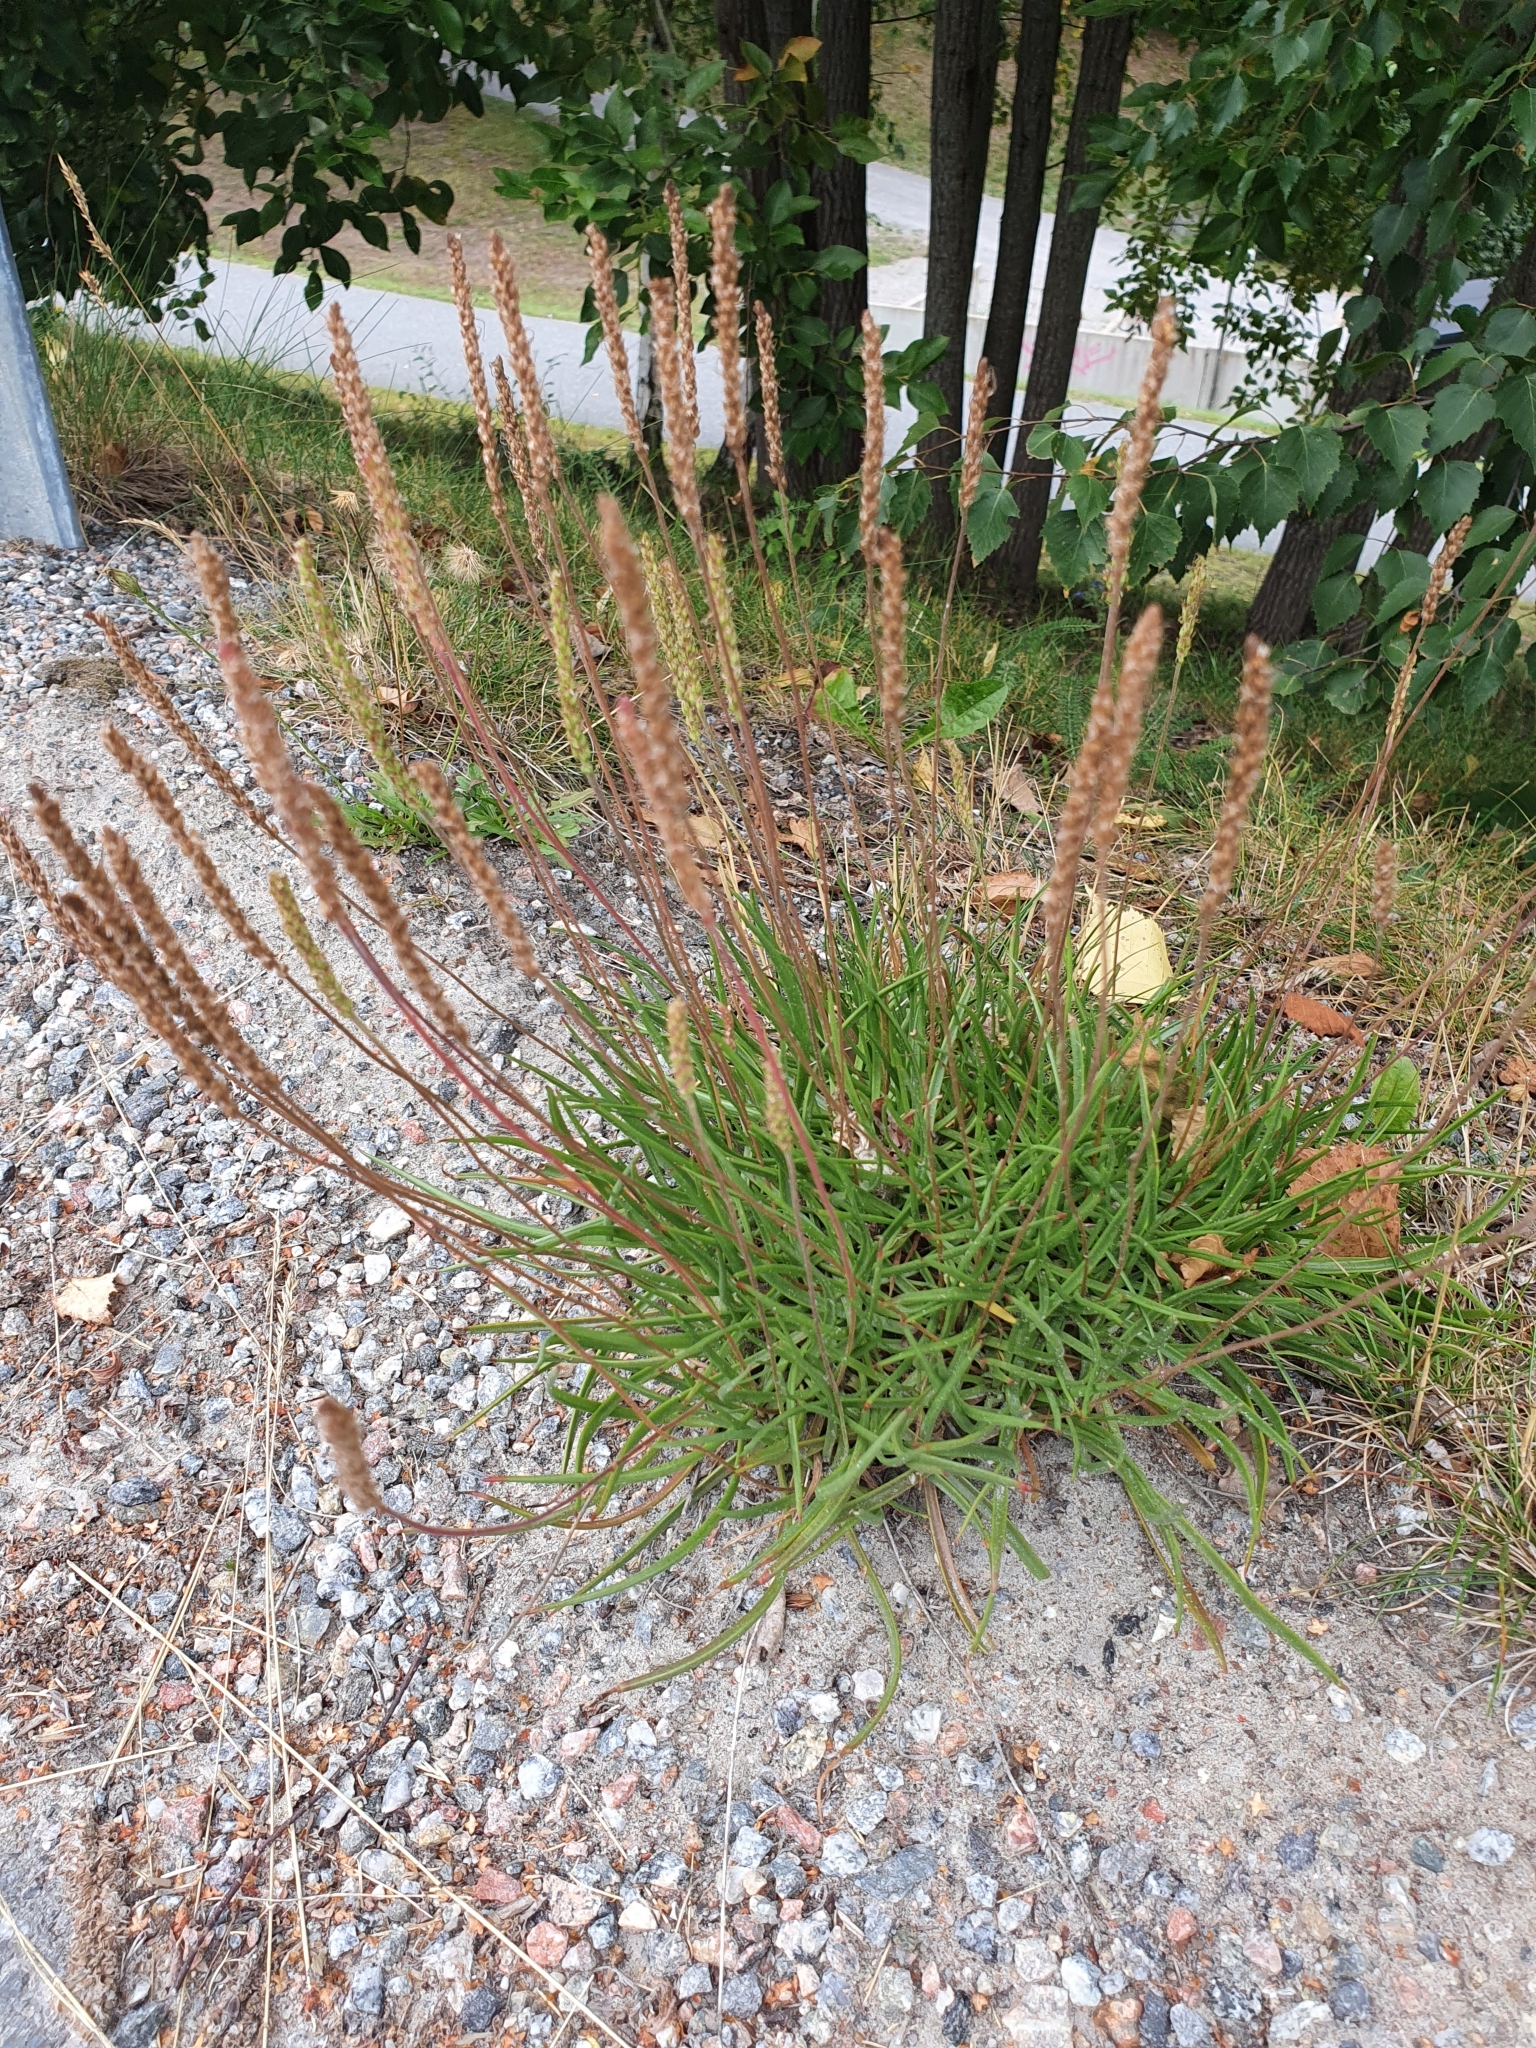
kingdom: Plantae
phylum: Tracheophyta
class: Magnoliopsida
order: Lamiales
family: Plantaginaceae
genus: Plantago
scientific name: Plantago maritima
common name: Sea plantain
